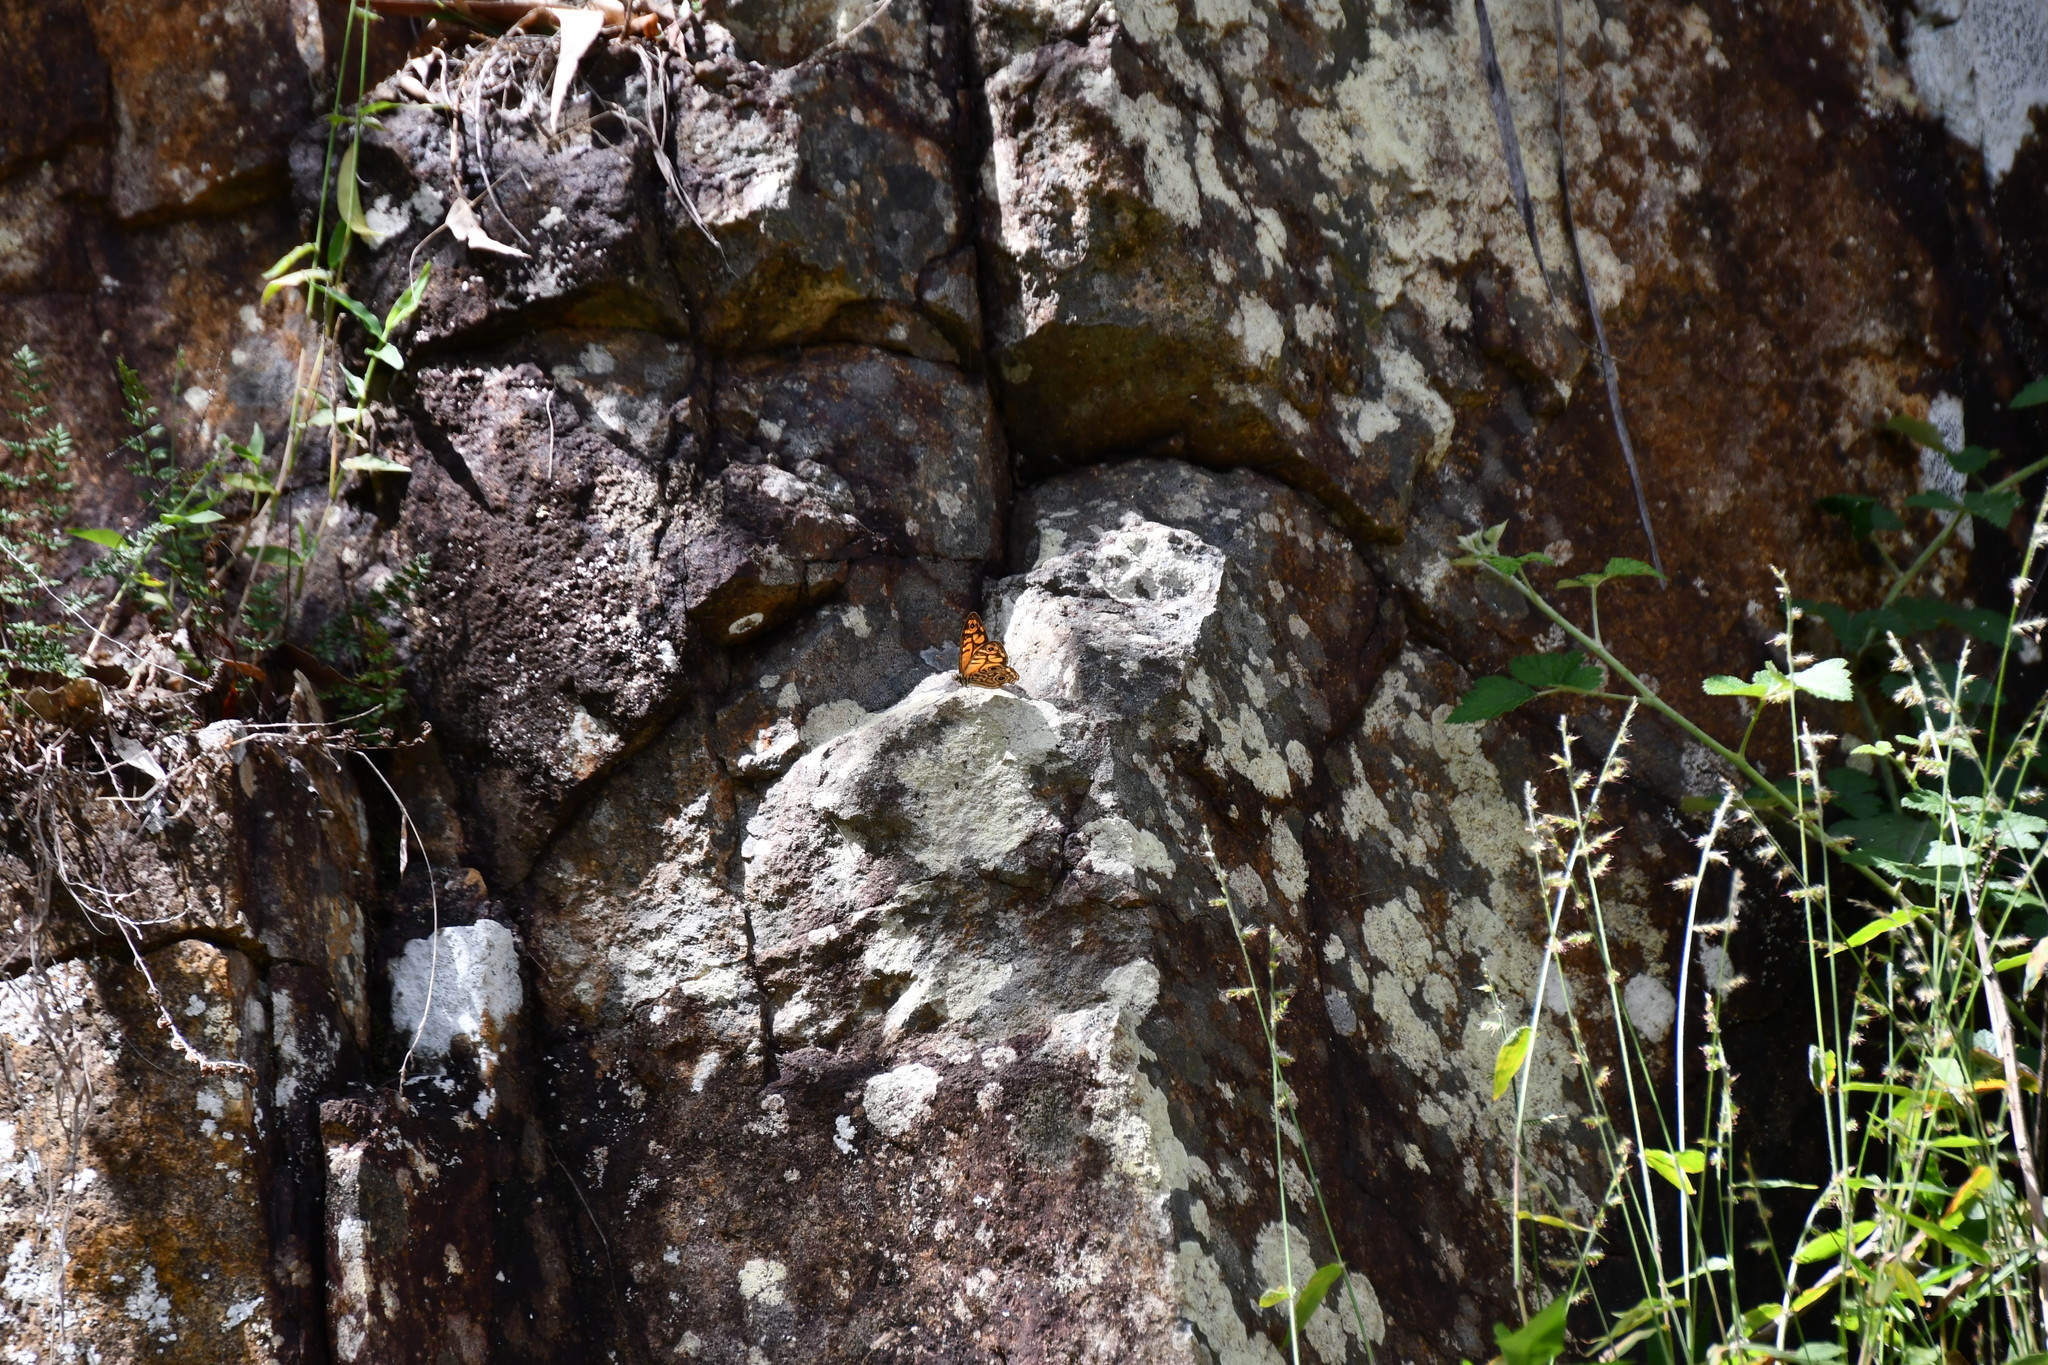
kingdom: Animalia
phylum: Arthropoda
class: Insecta
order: Lepidoptera
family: Nymphalidae
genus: Geitoneura
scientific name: Geitoneura acantha
